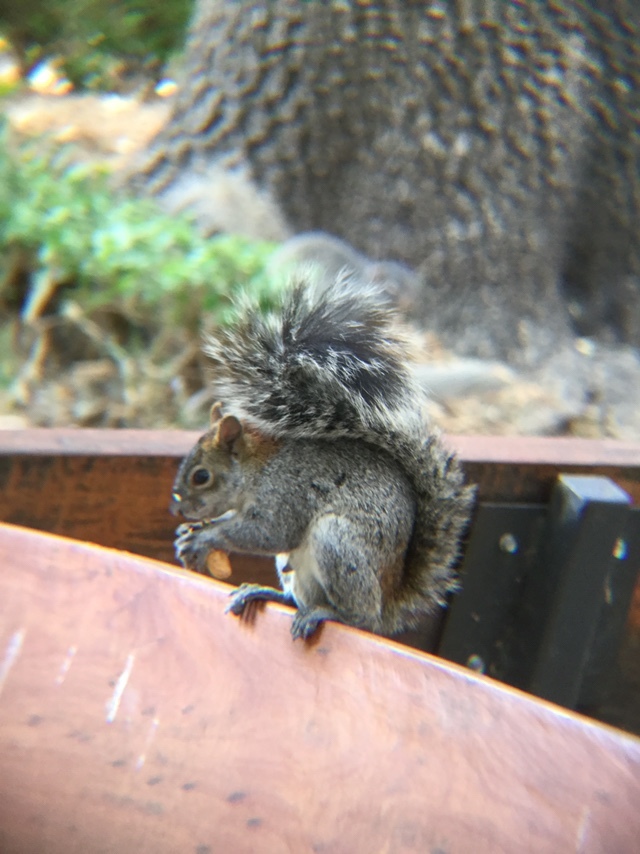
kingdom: Animalia
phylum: Chordata
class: Mammalia
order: Rodentia
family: Sciuridae
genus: Sciurus
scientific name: Sciurus aureogaster
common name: Red-bellied squirrel
